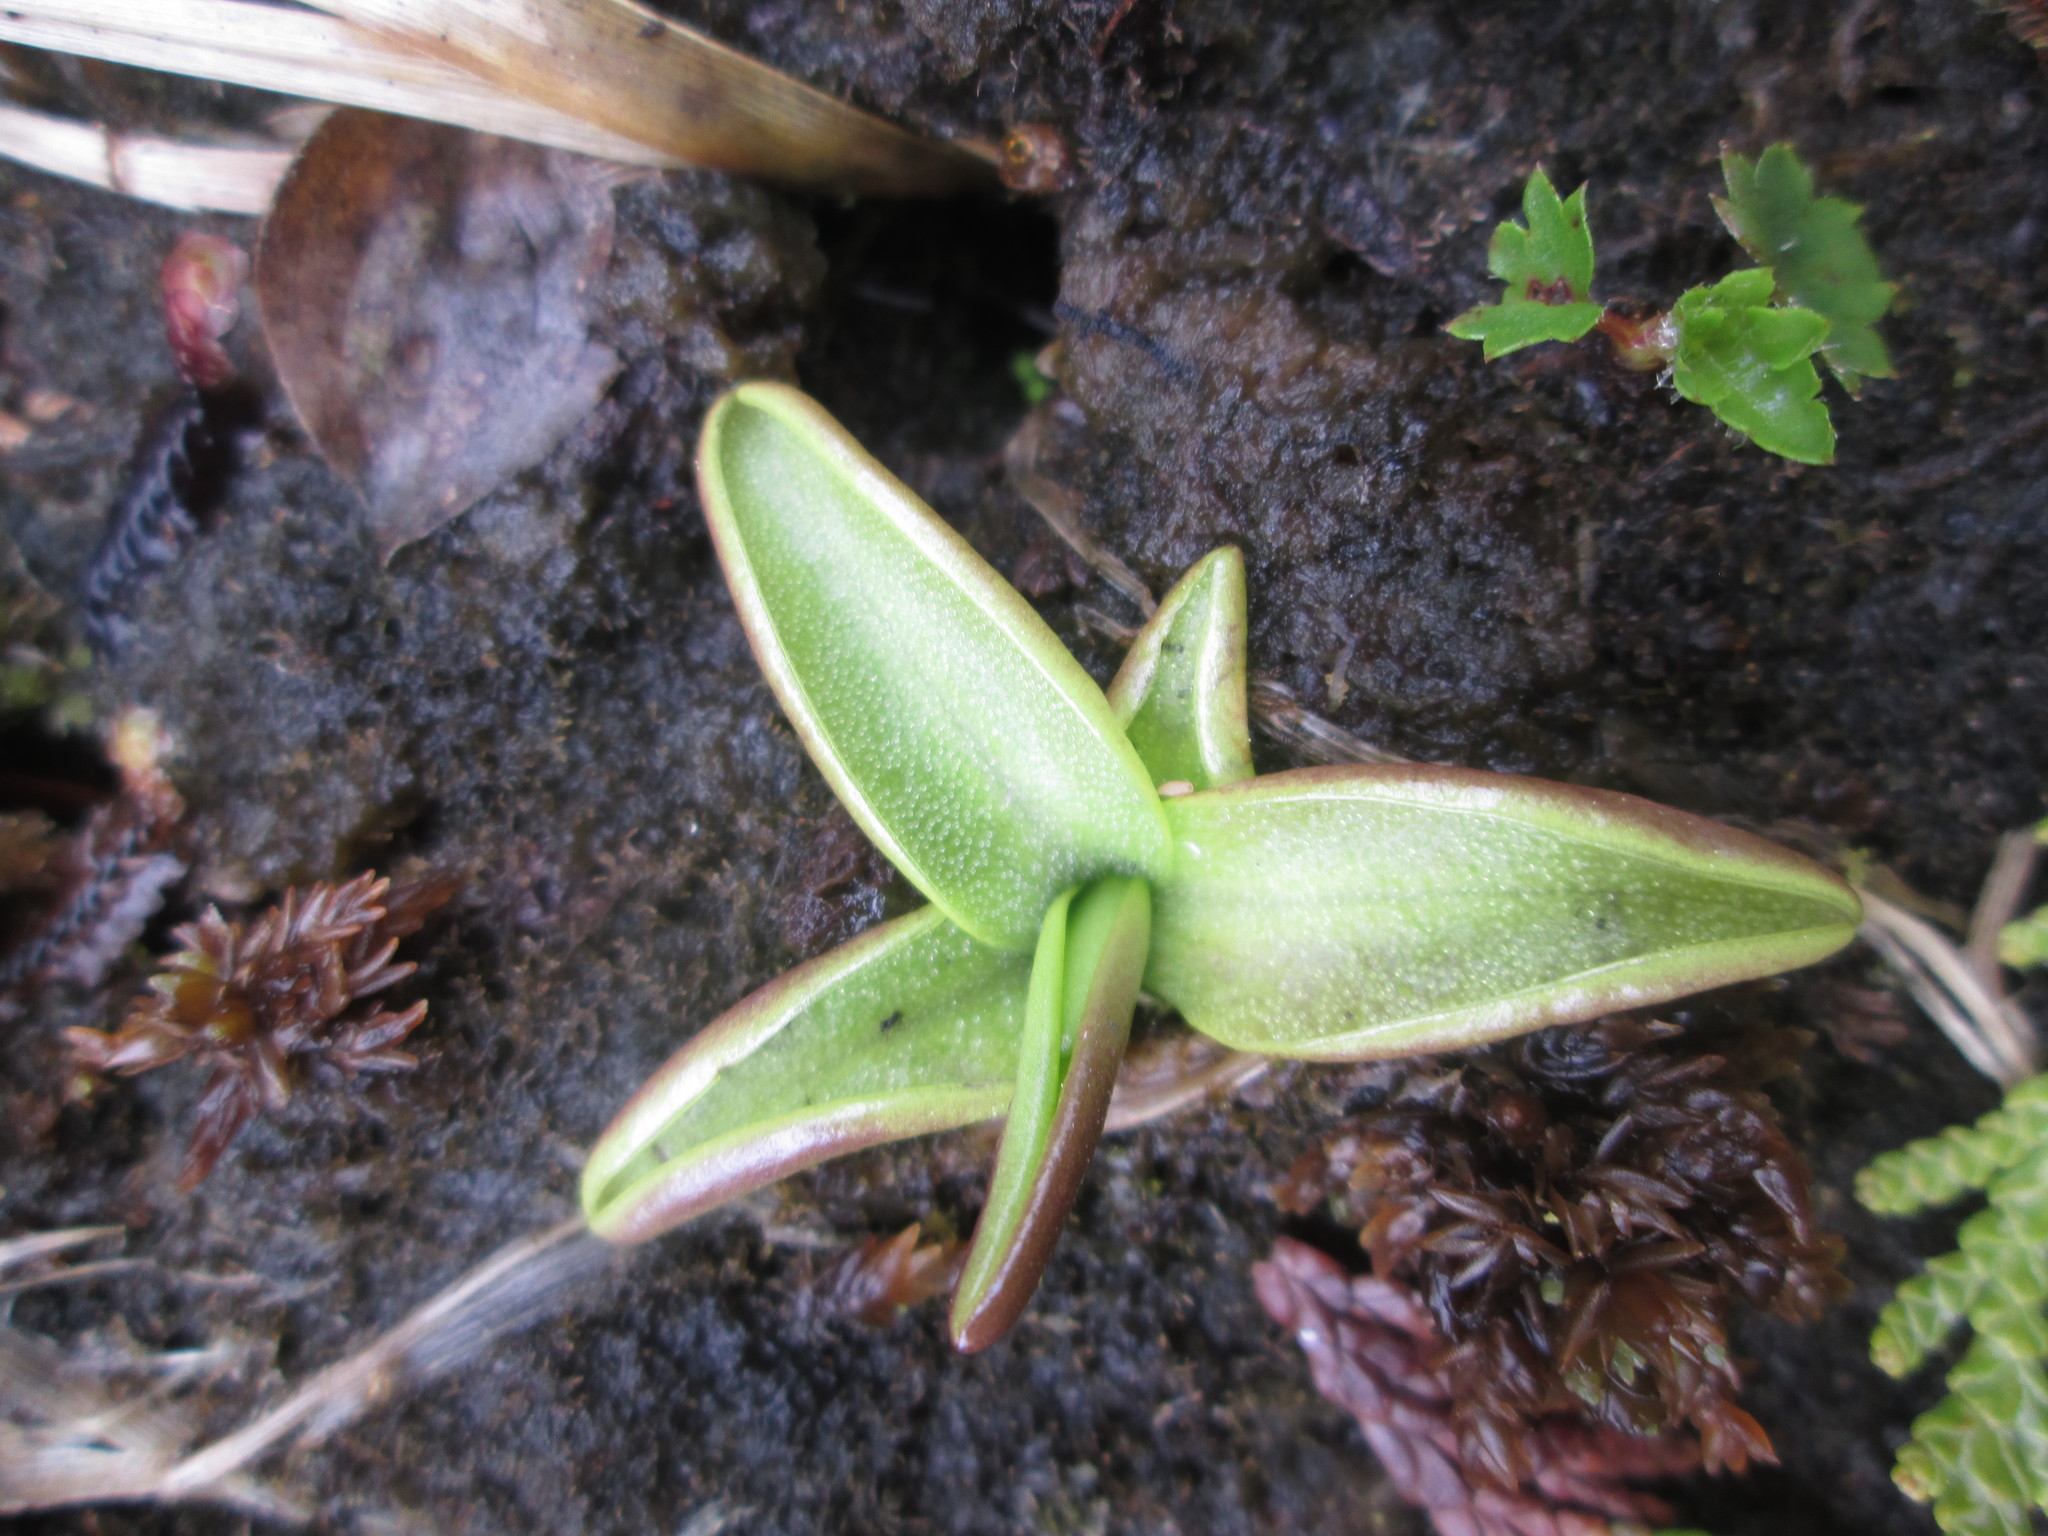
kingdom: Plantae
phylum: Tracheophyta
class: Magnoliopsida
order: Lamiales
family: Lentibulariaceae
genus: Pinguicula
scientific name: Pinguicula vulgaris
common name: Common butterwort
